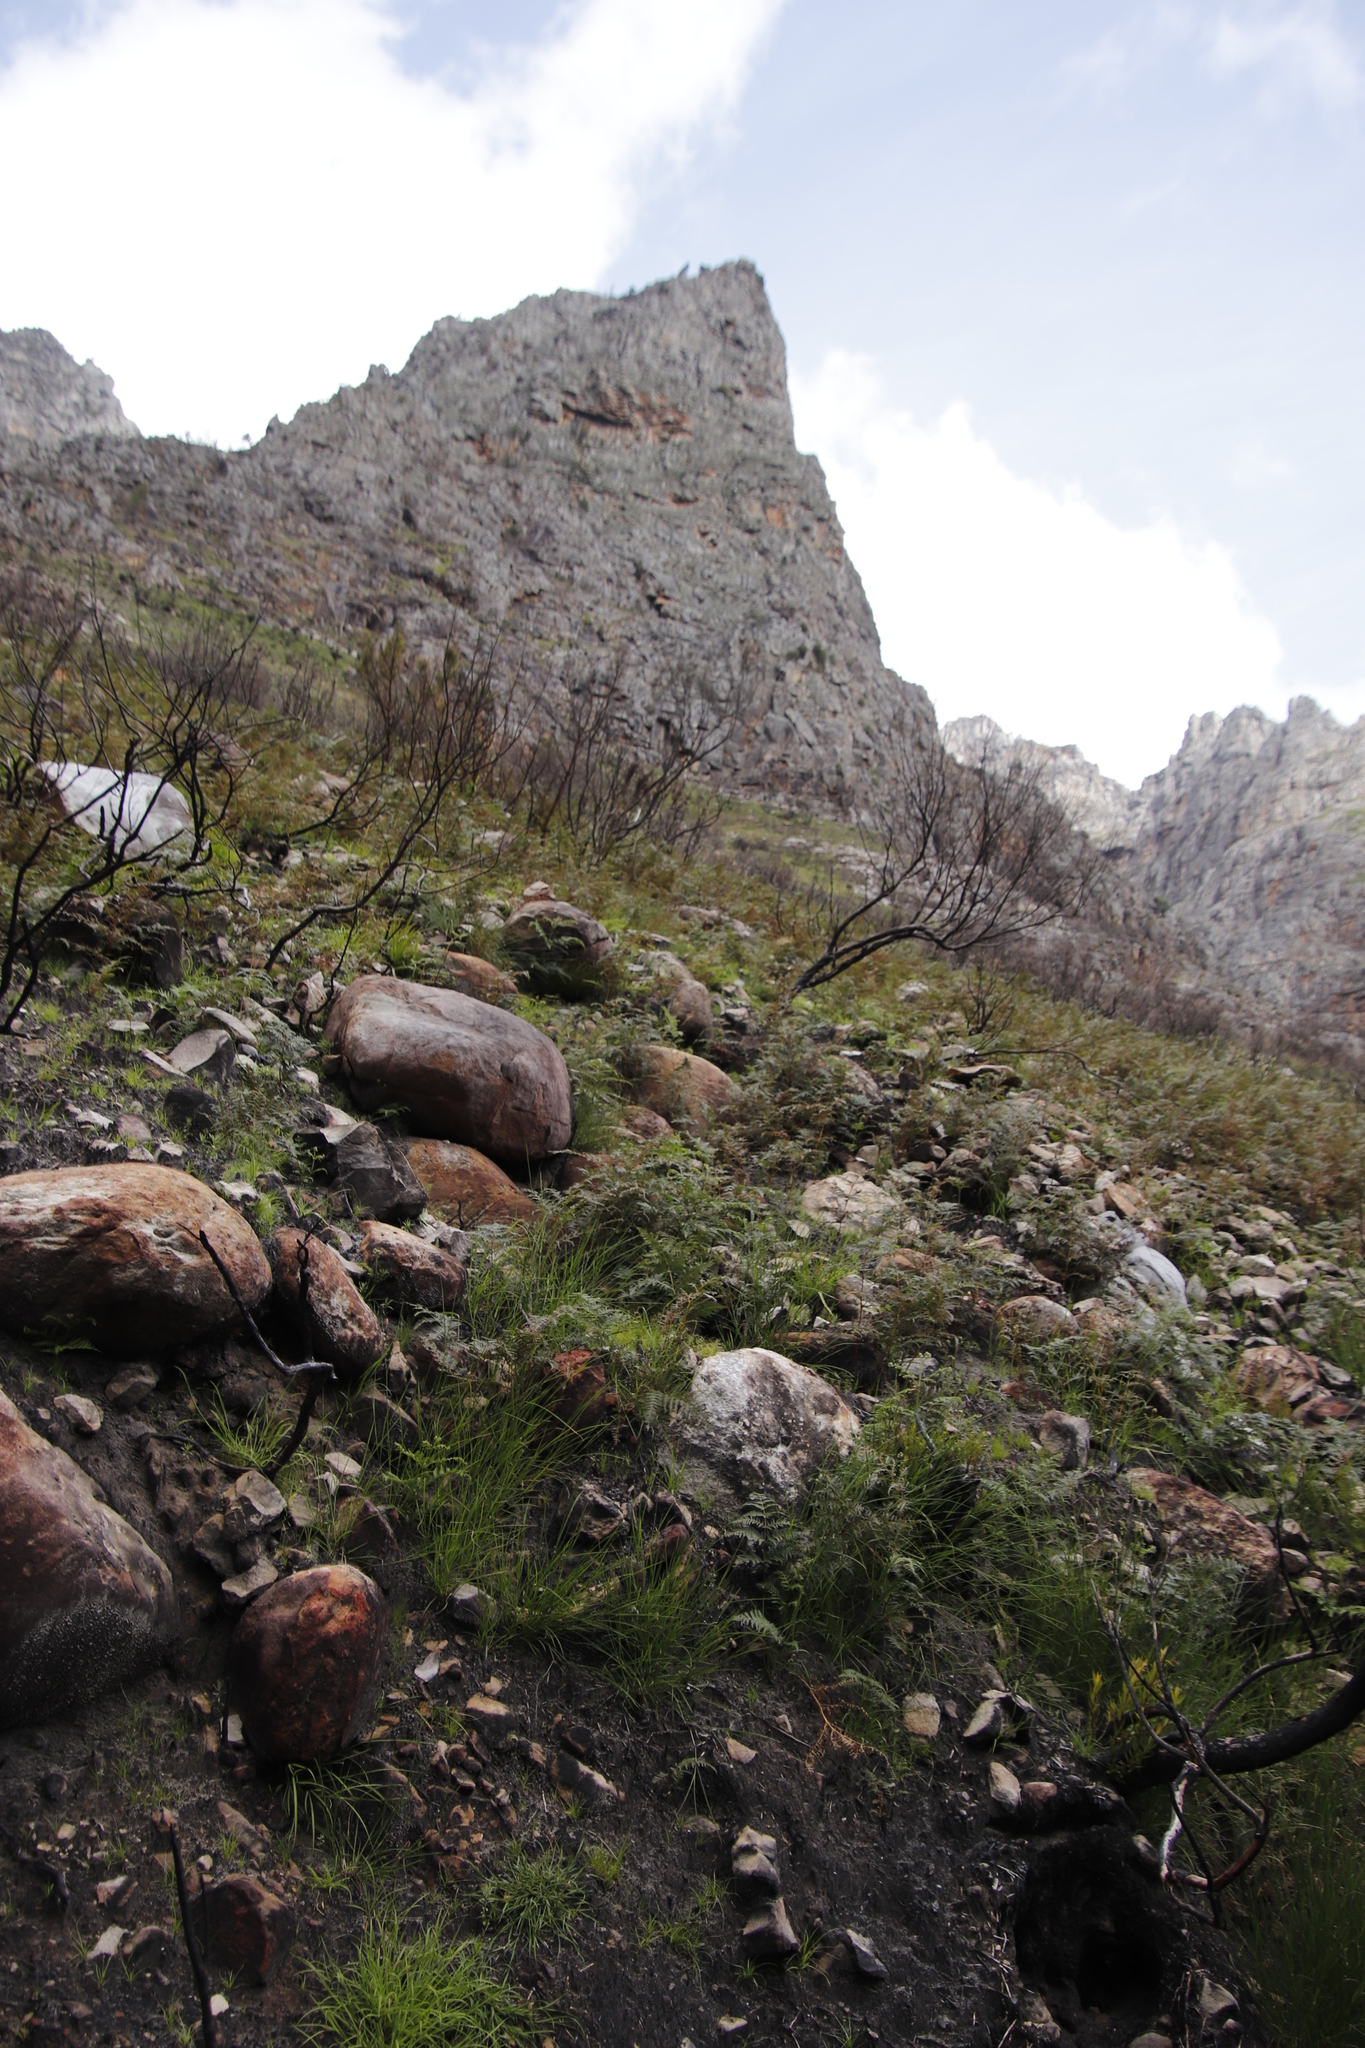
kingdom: Plantae
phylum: Tracheophyta
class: Polypodiopsida
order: Polypodiales
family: Dennstaedtiaceae
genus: Pteridium
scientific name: Pteridium aquilinum
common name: Bracken
